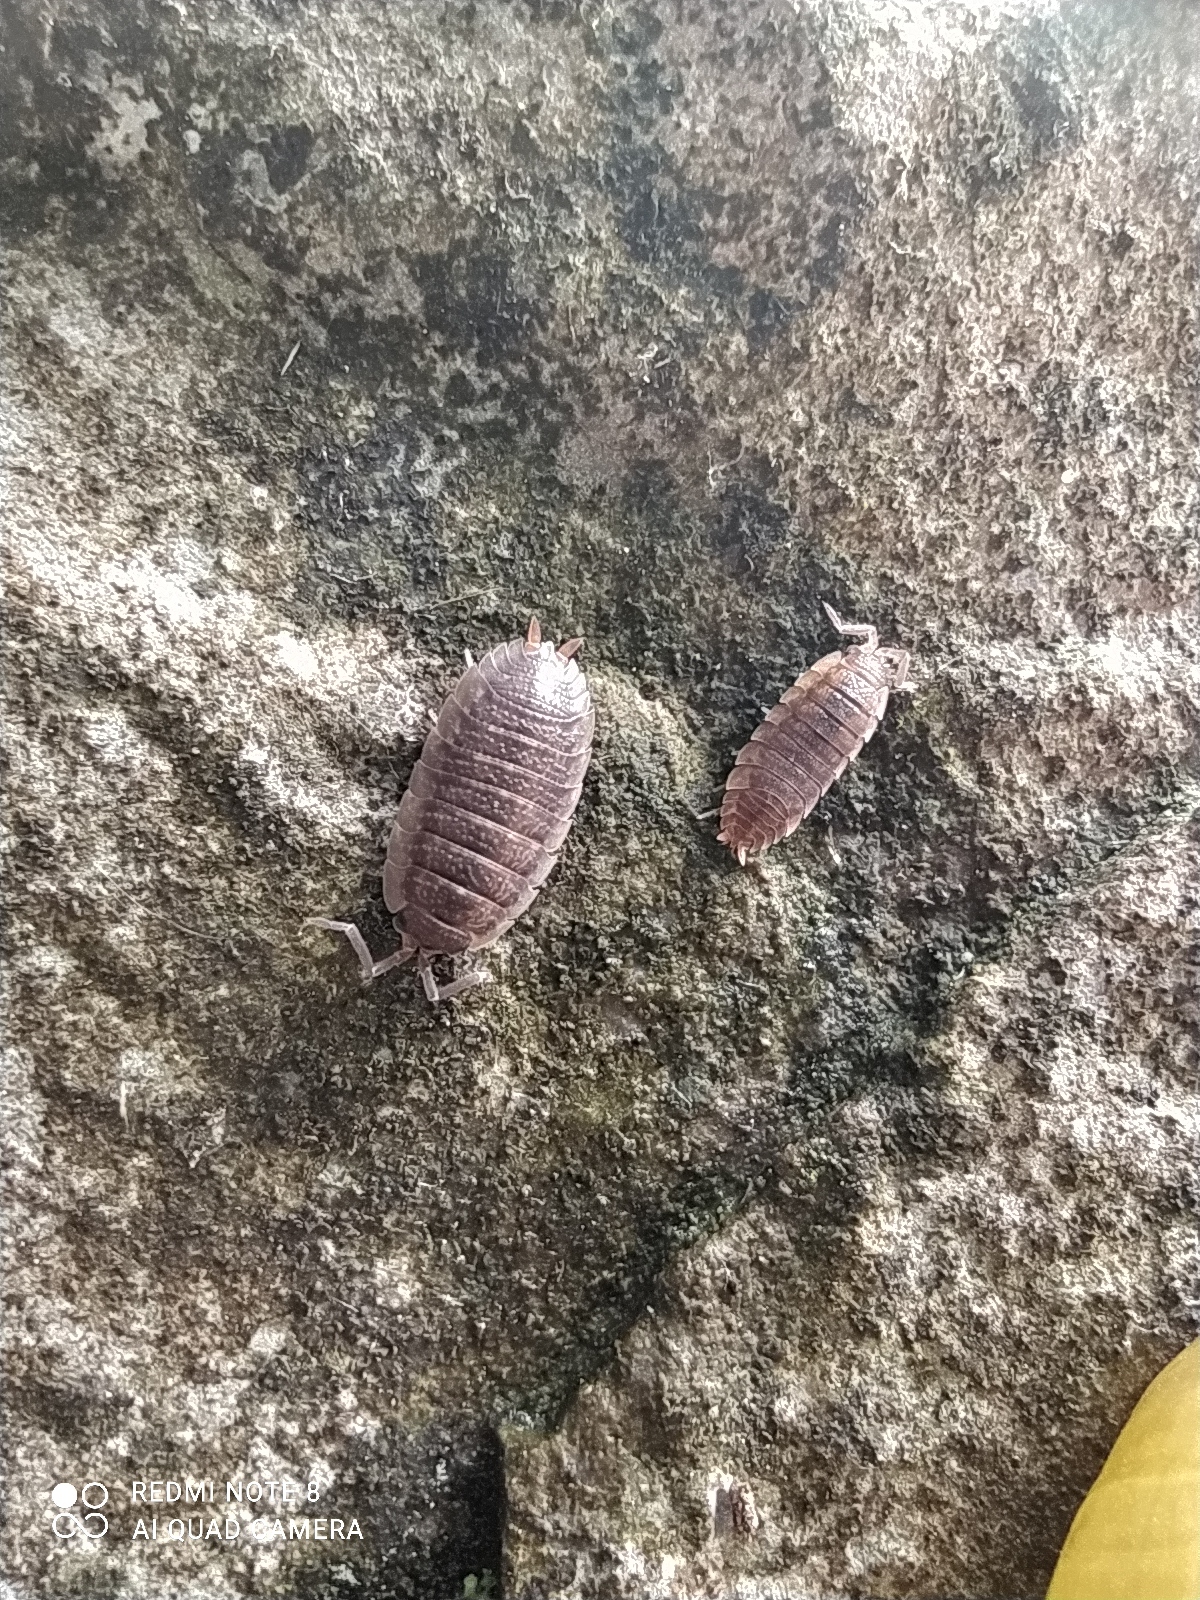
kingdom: Animalia
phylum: Arthropoda
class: Malacostraca
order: Isopoda
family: Porcellionidae
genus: Porcellio
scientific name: Porcellio scaber
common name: Common rough woodlouse
